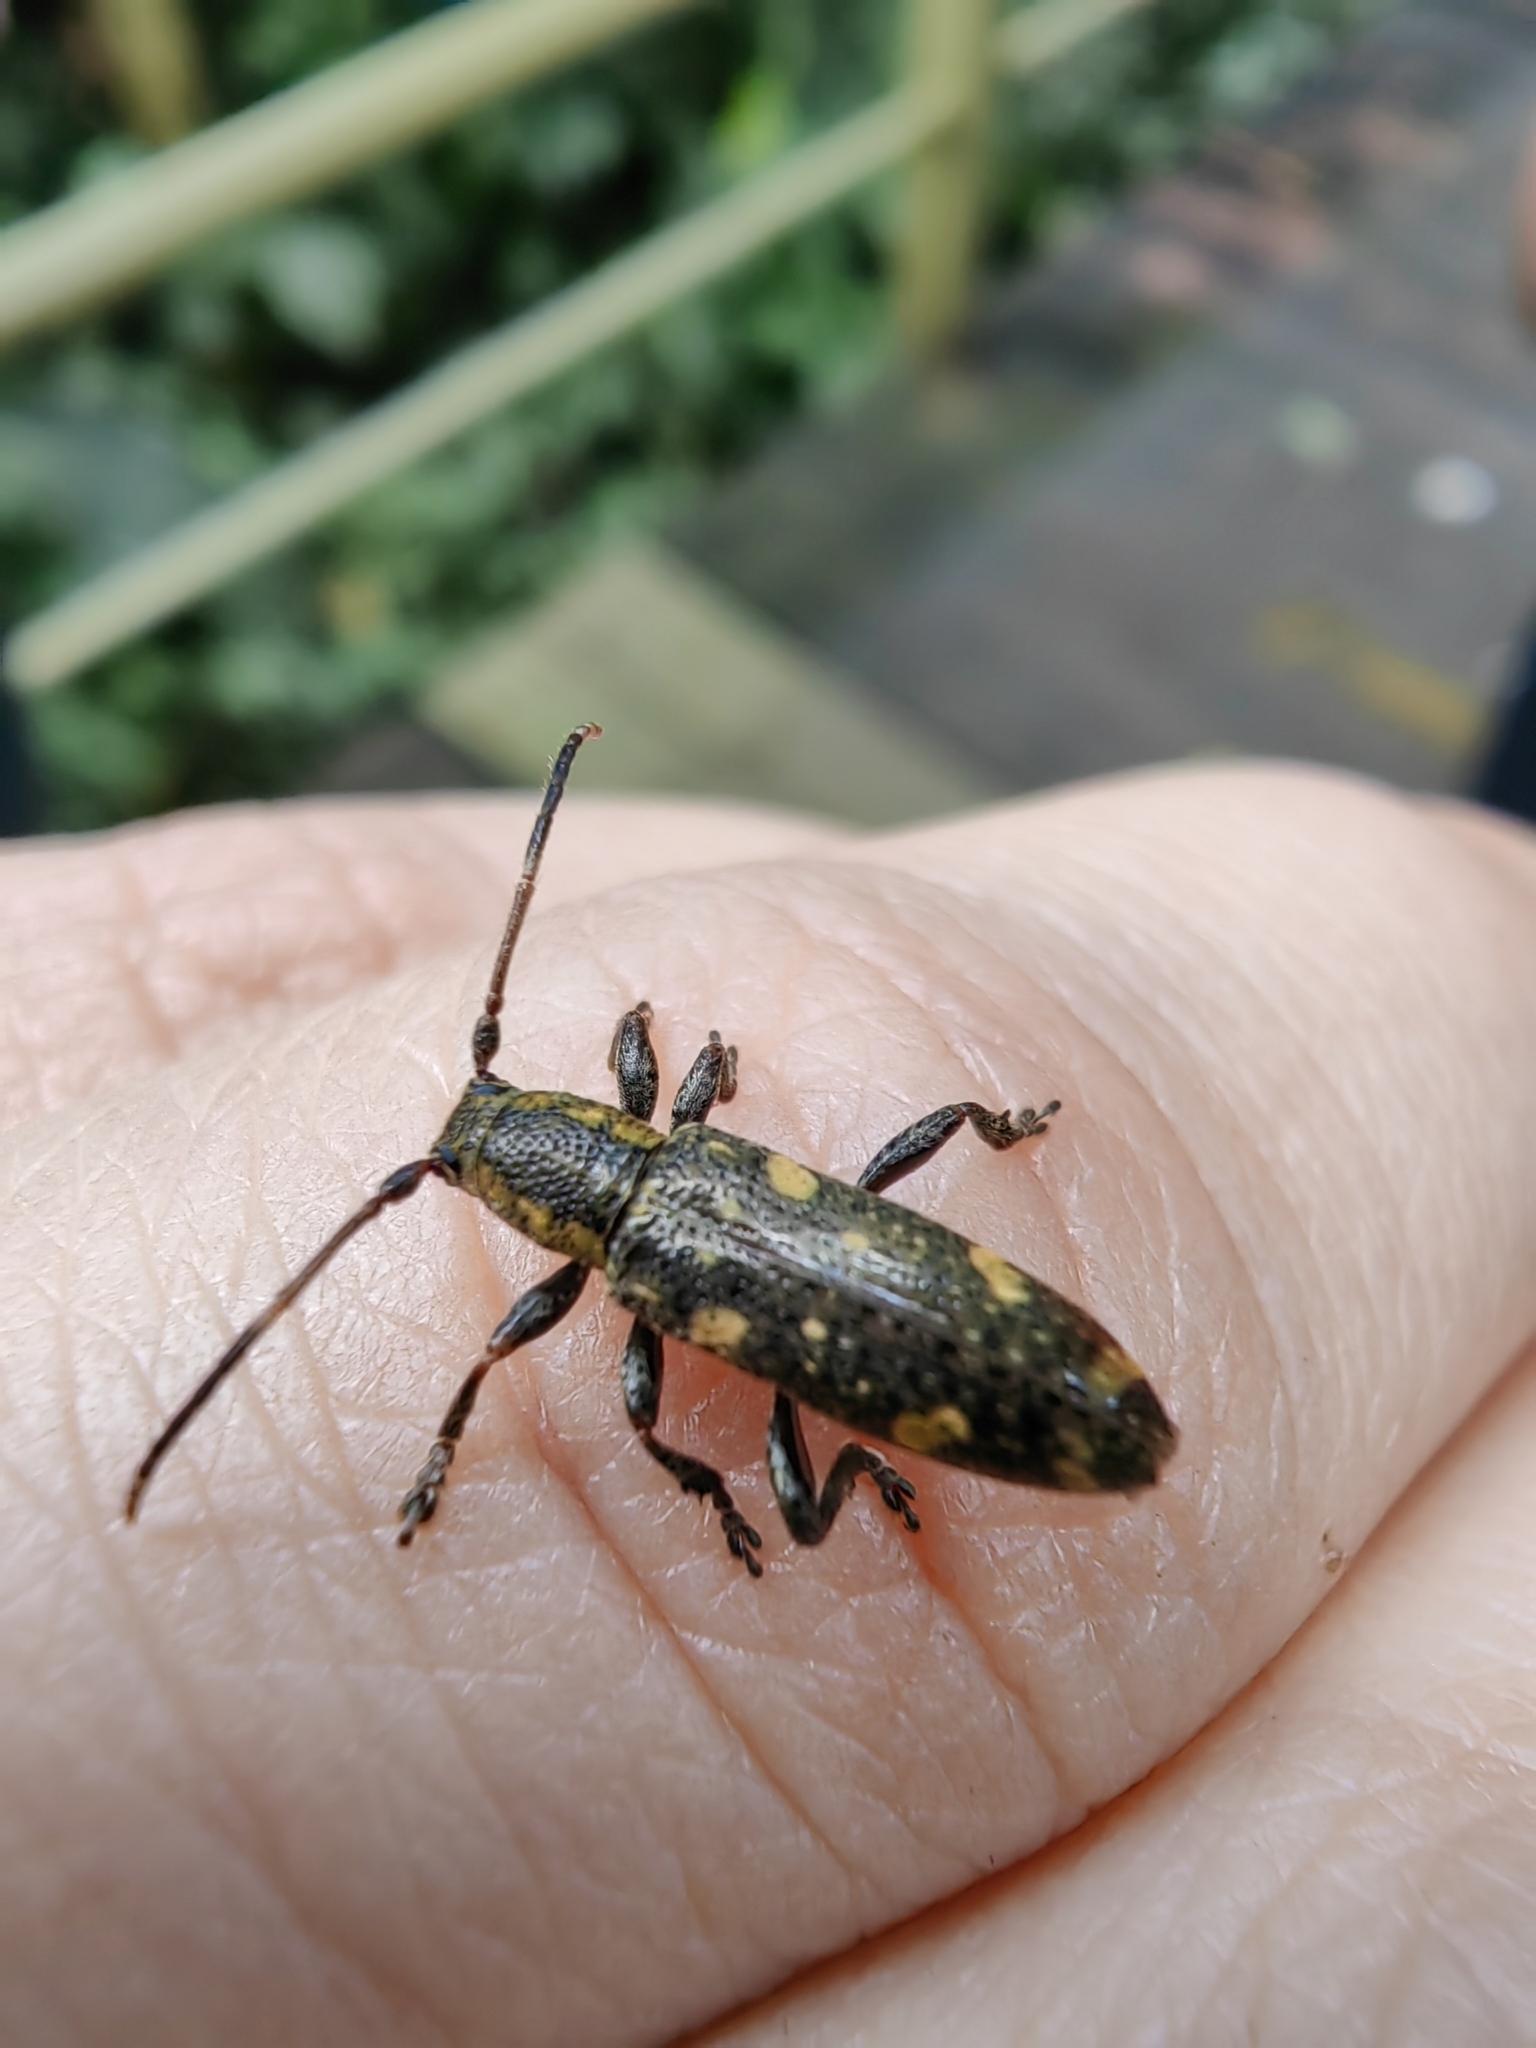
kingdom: Animalia
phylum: Arthropoda
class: Insecta
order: Coleoptera
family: Cerambycidae
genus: Adetus
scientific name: Adetus pictoides
